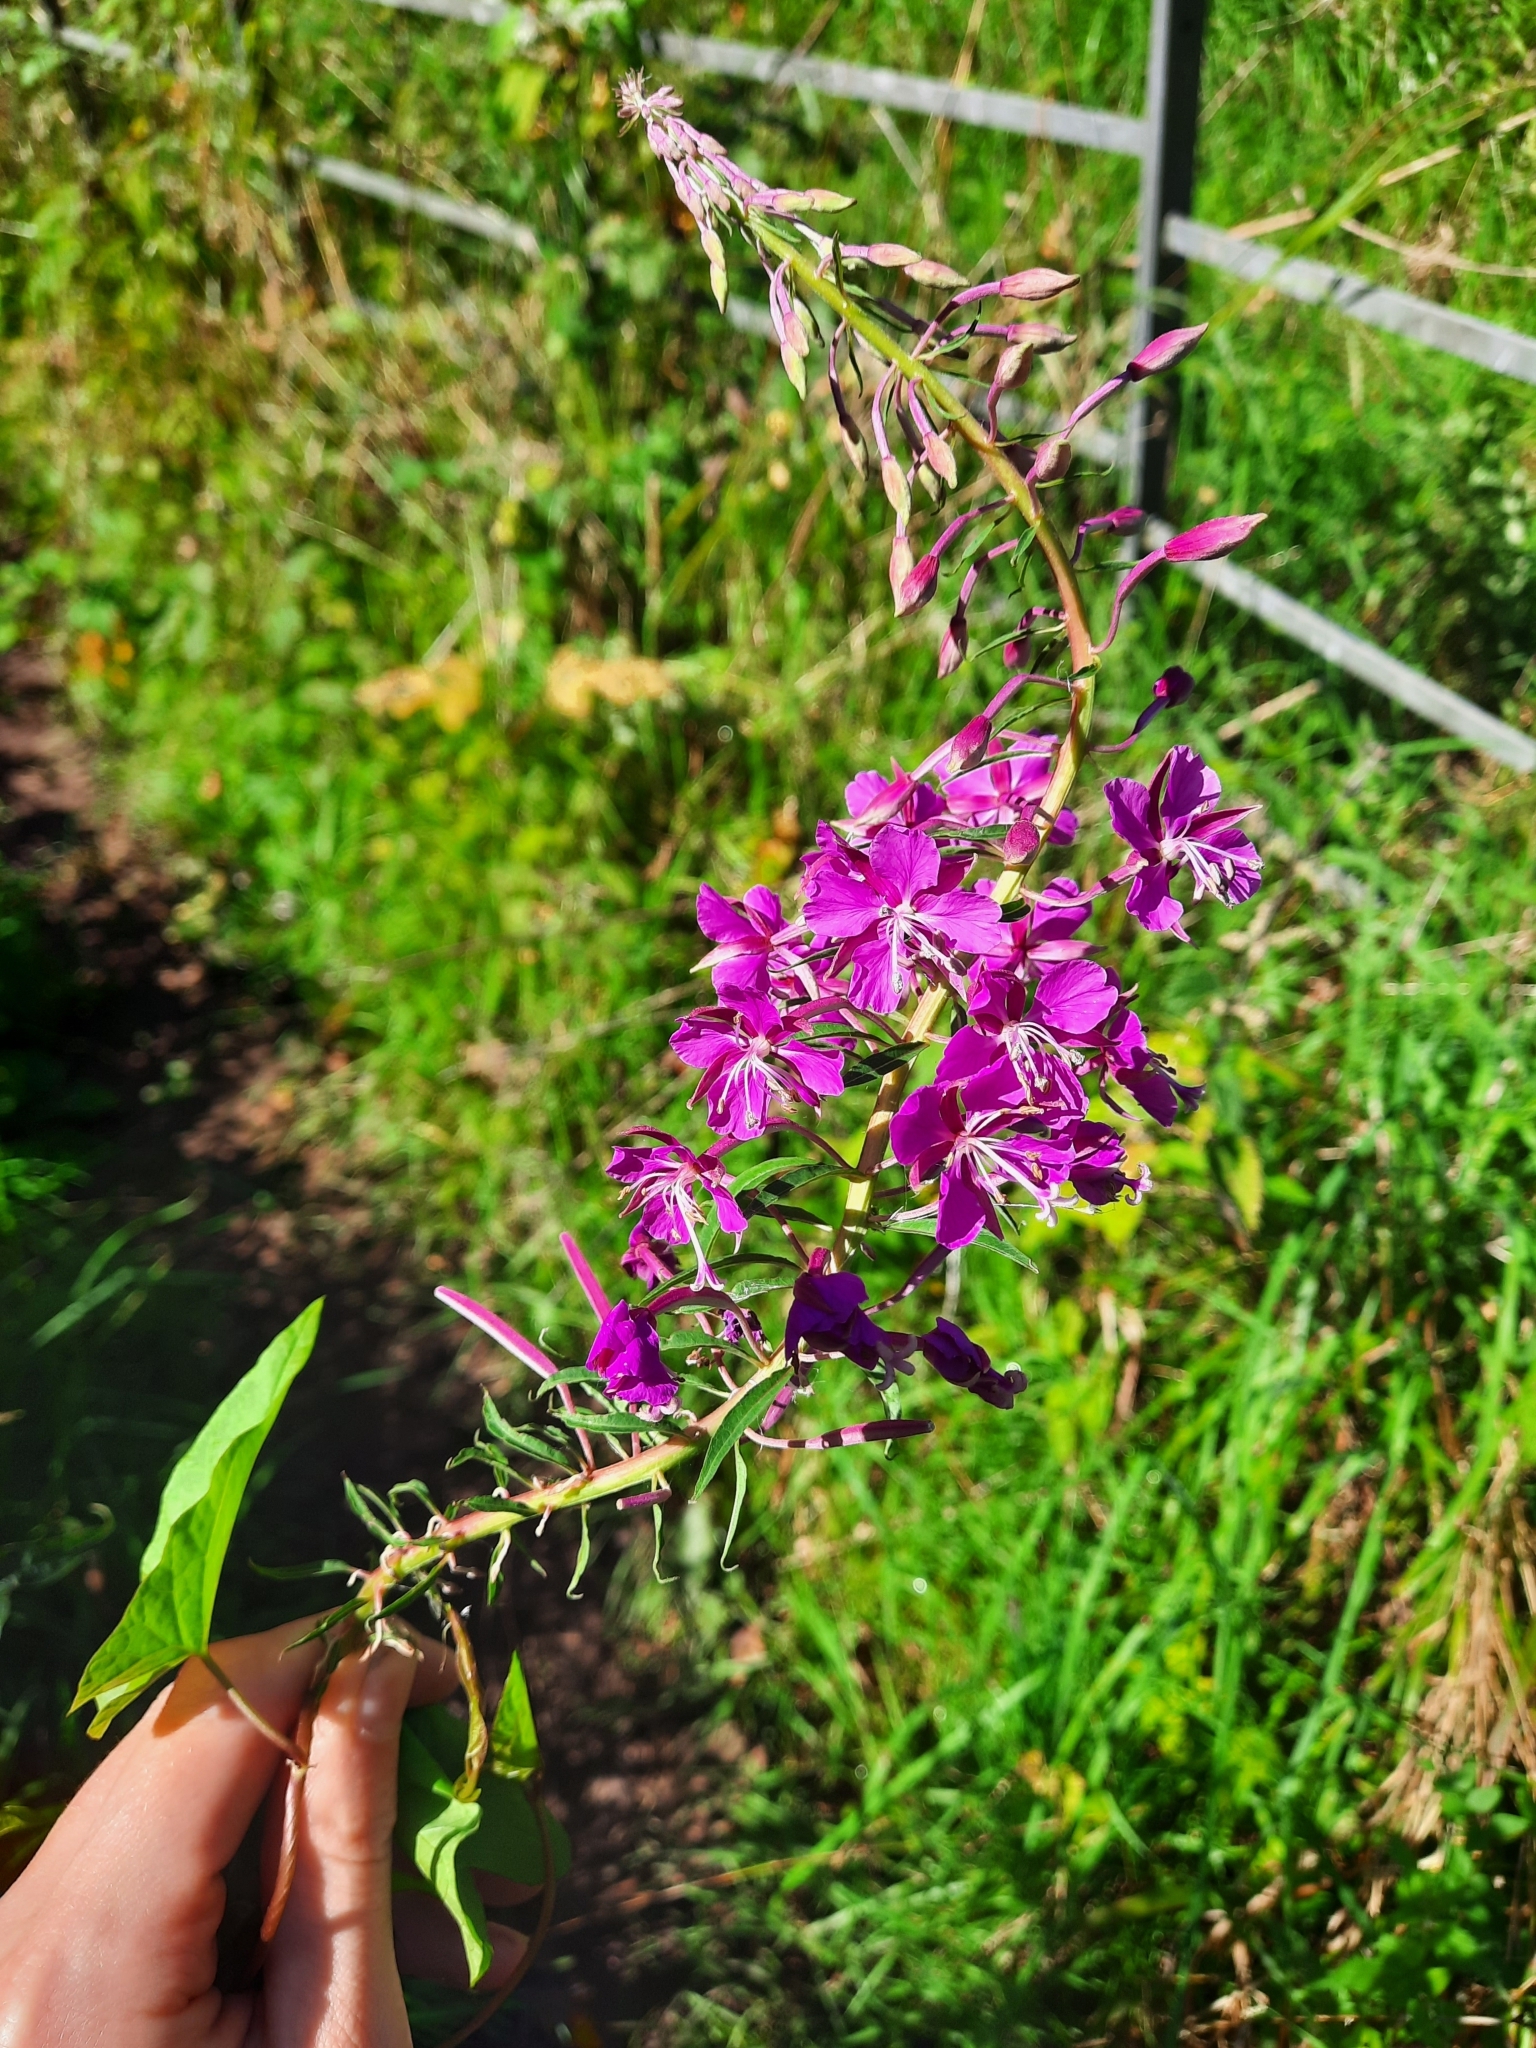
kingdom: Plantae
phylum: Tracheophyta
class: Magnoliopsida
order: Myrtales
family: Onagraceae
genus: Chamaenerion
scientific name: Chamaenerion angustifolium
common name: Fireweed
